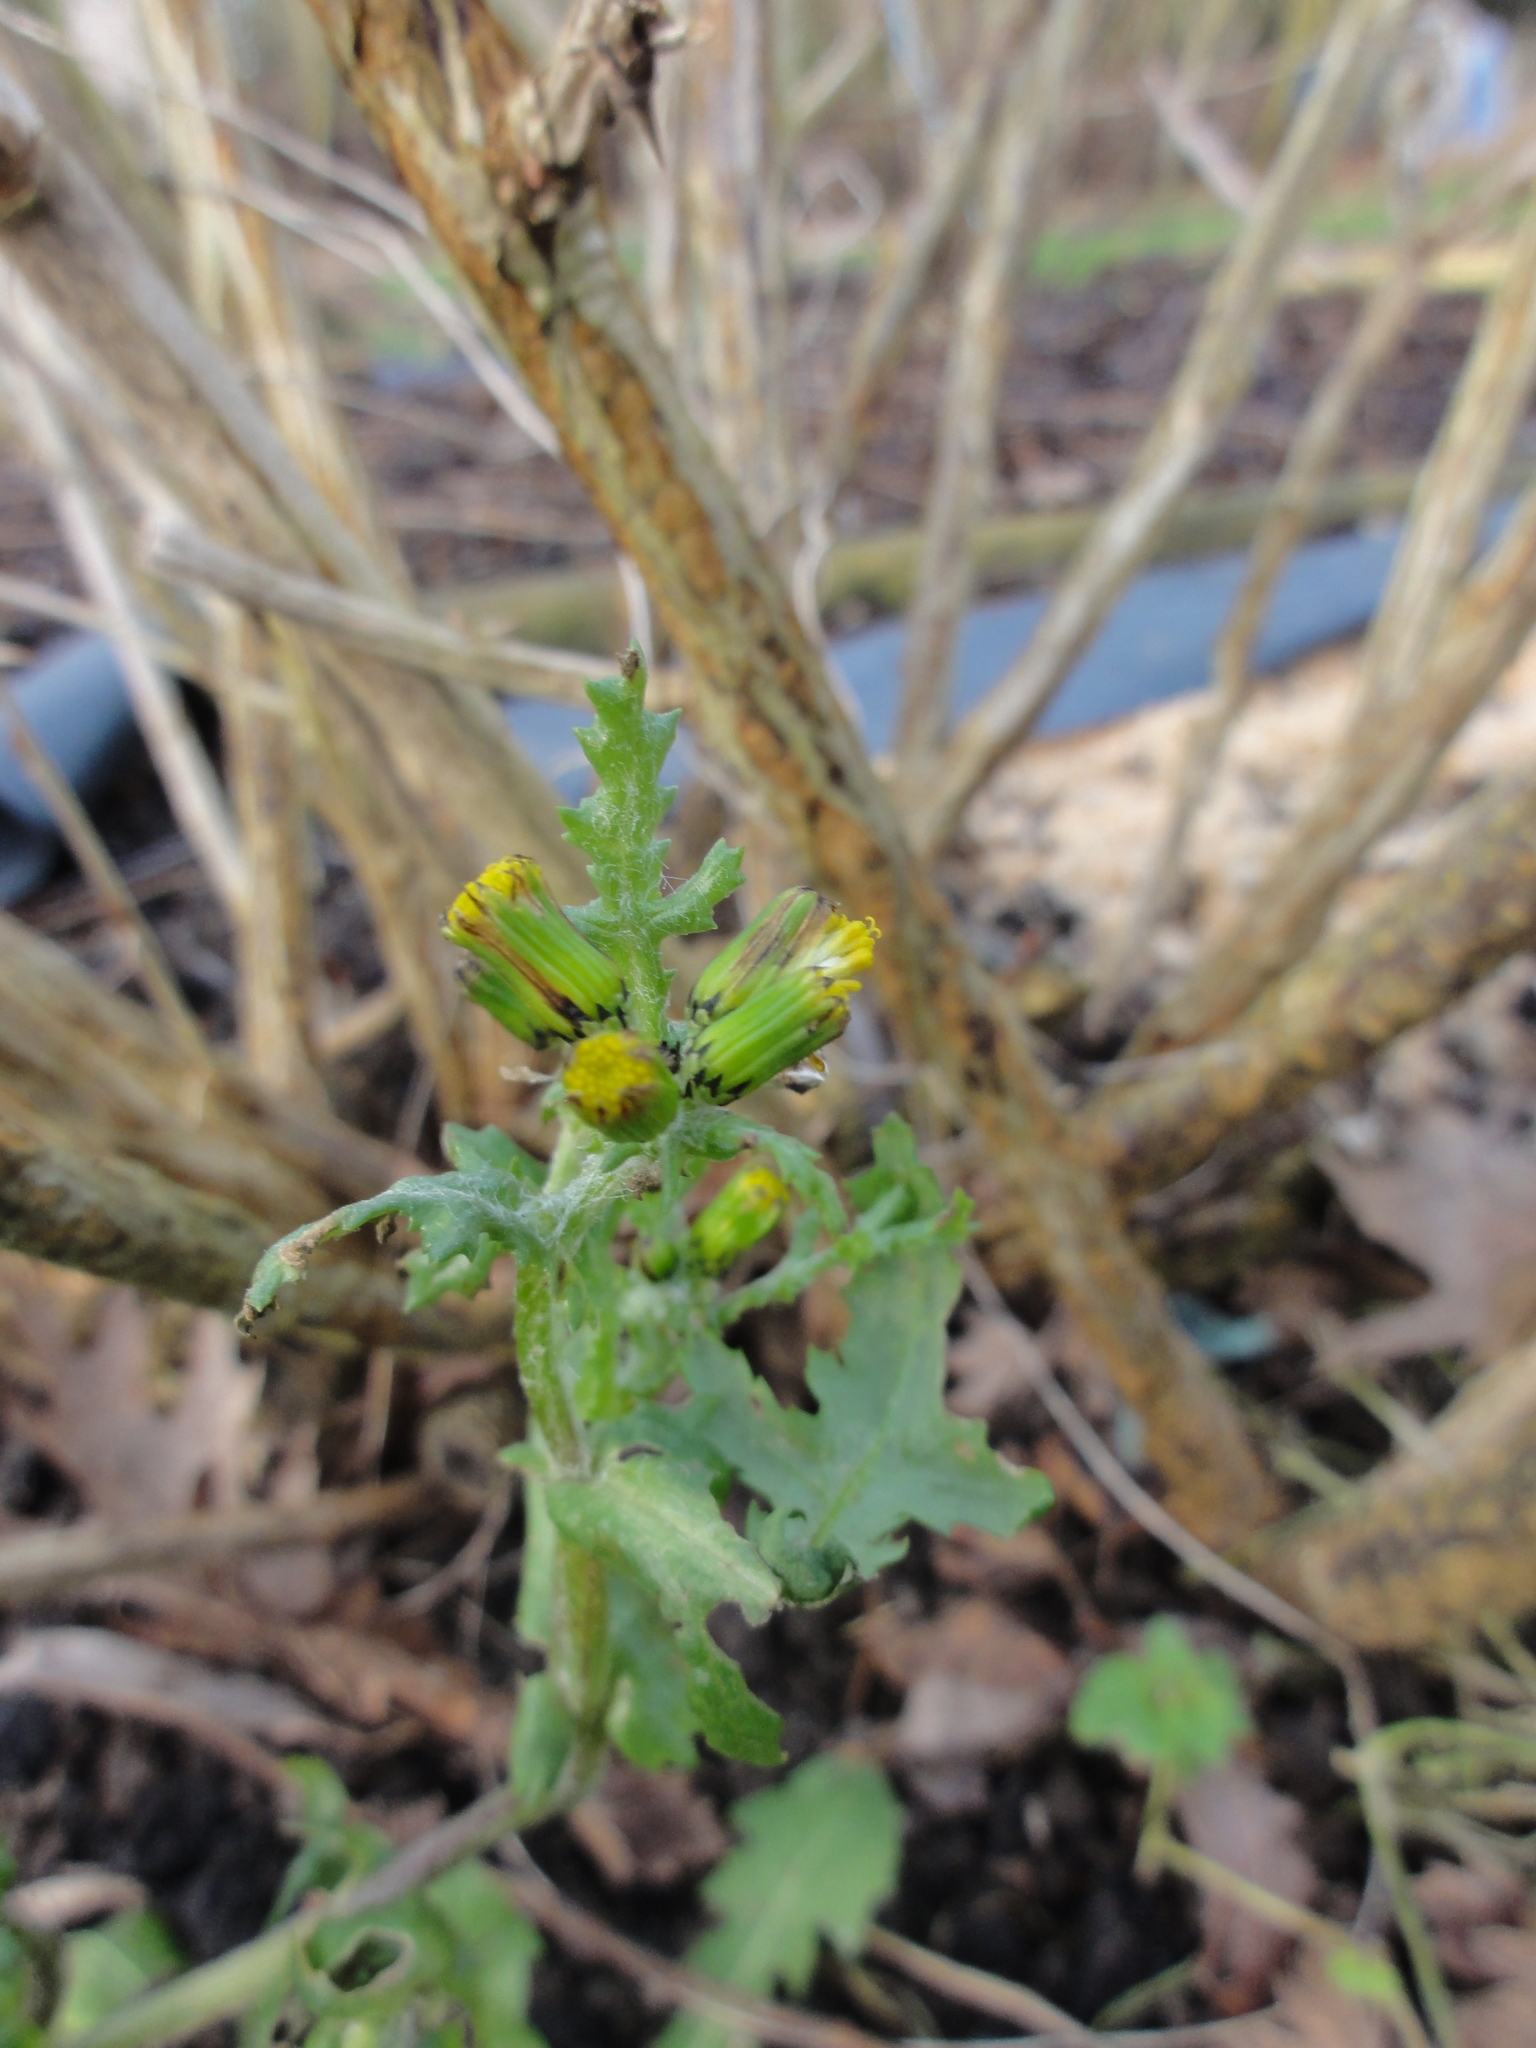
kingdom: Plantae
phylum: Tracheophyta
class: Magnoliopsida
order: Asterales
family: Asteraceae
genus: Senecio
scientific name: Senecio vulgaris
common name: Old-man-in-the-spring
